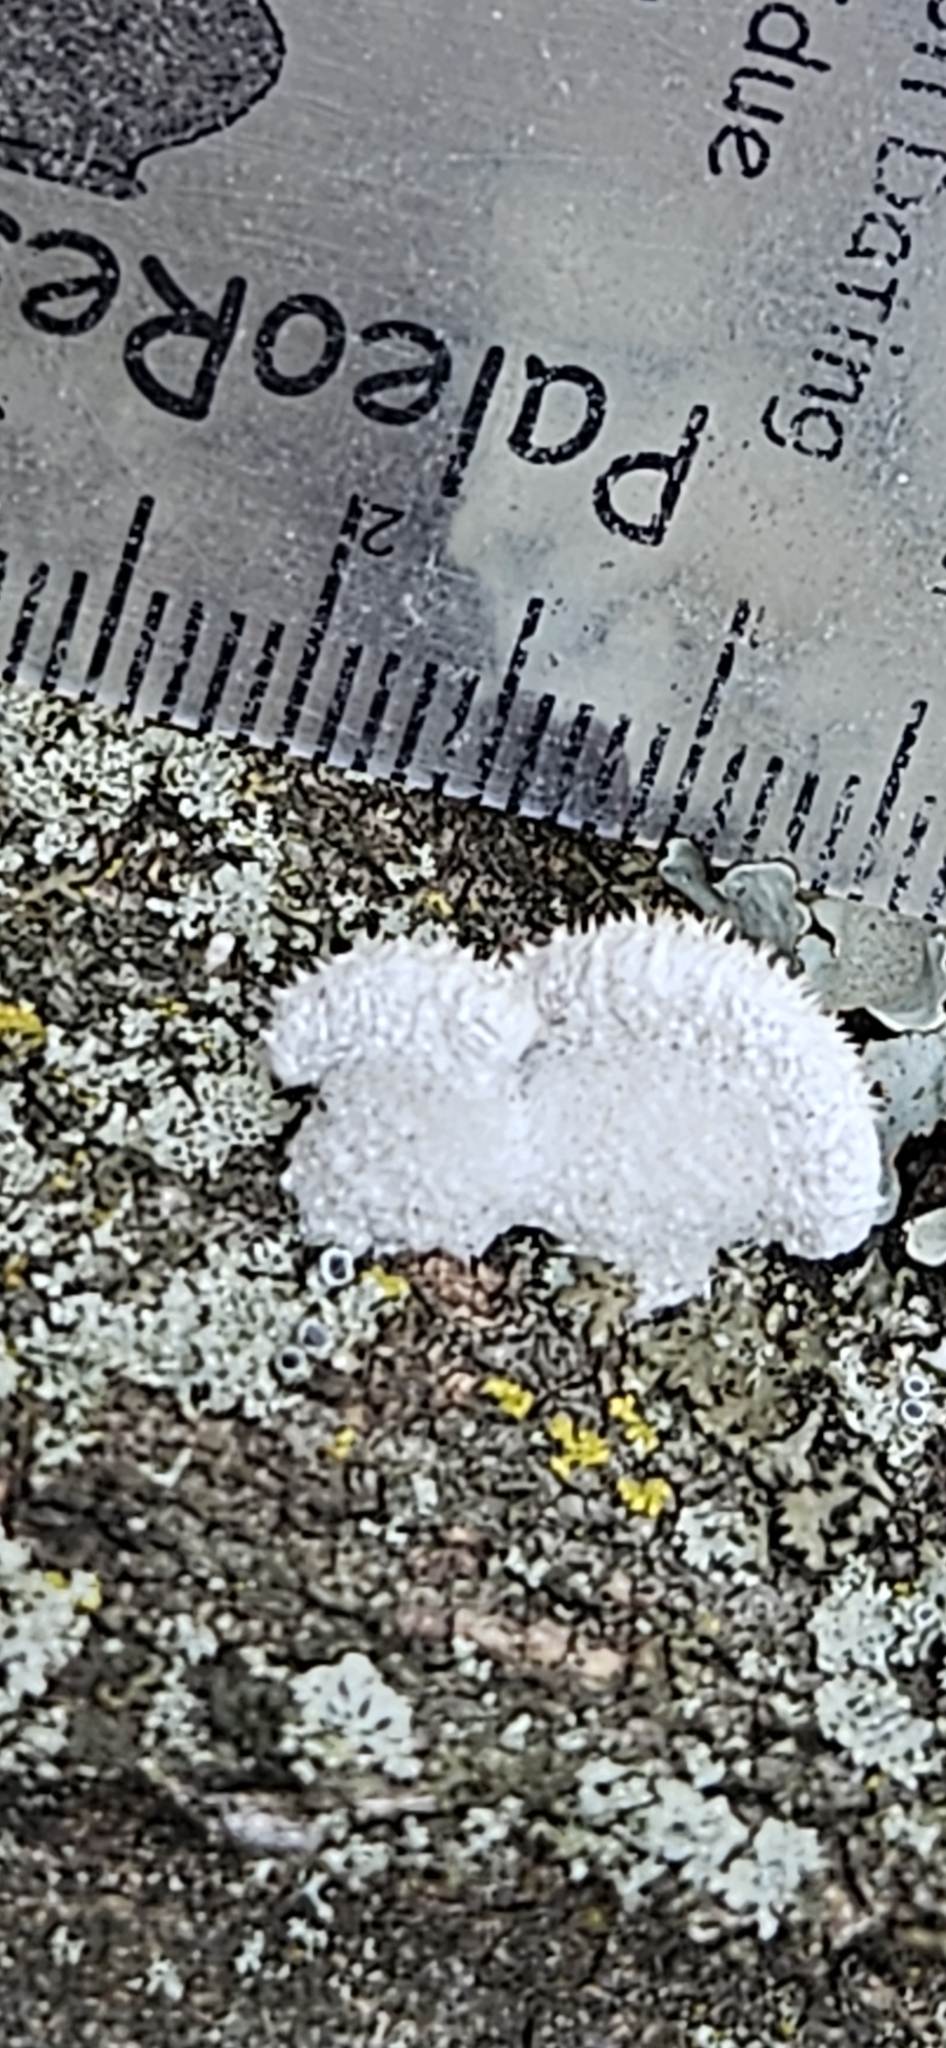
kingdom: Fungi
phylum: Basidiomycota
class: Agaricomycetes
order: Agaricales
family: Schizophyllaceae
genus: Schizophyllum
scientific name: Schizophyllum commune
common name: Common porecrust
